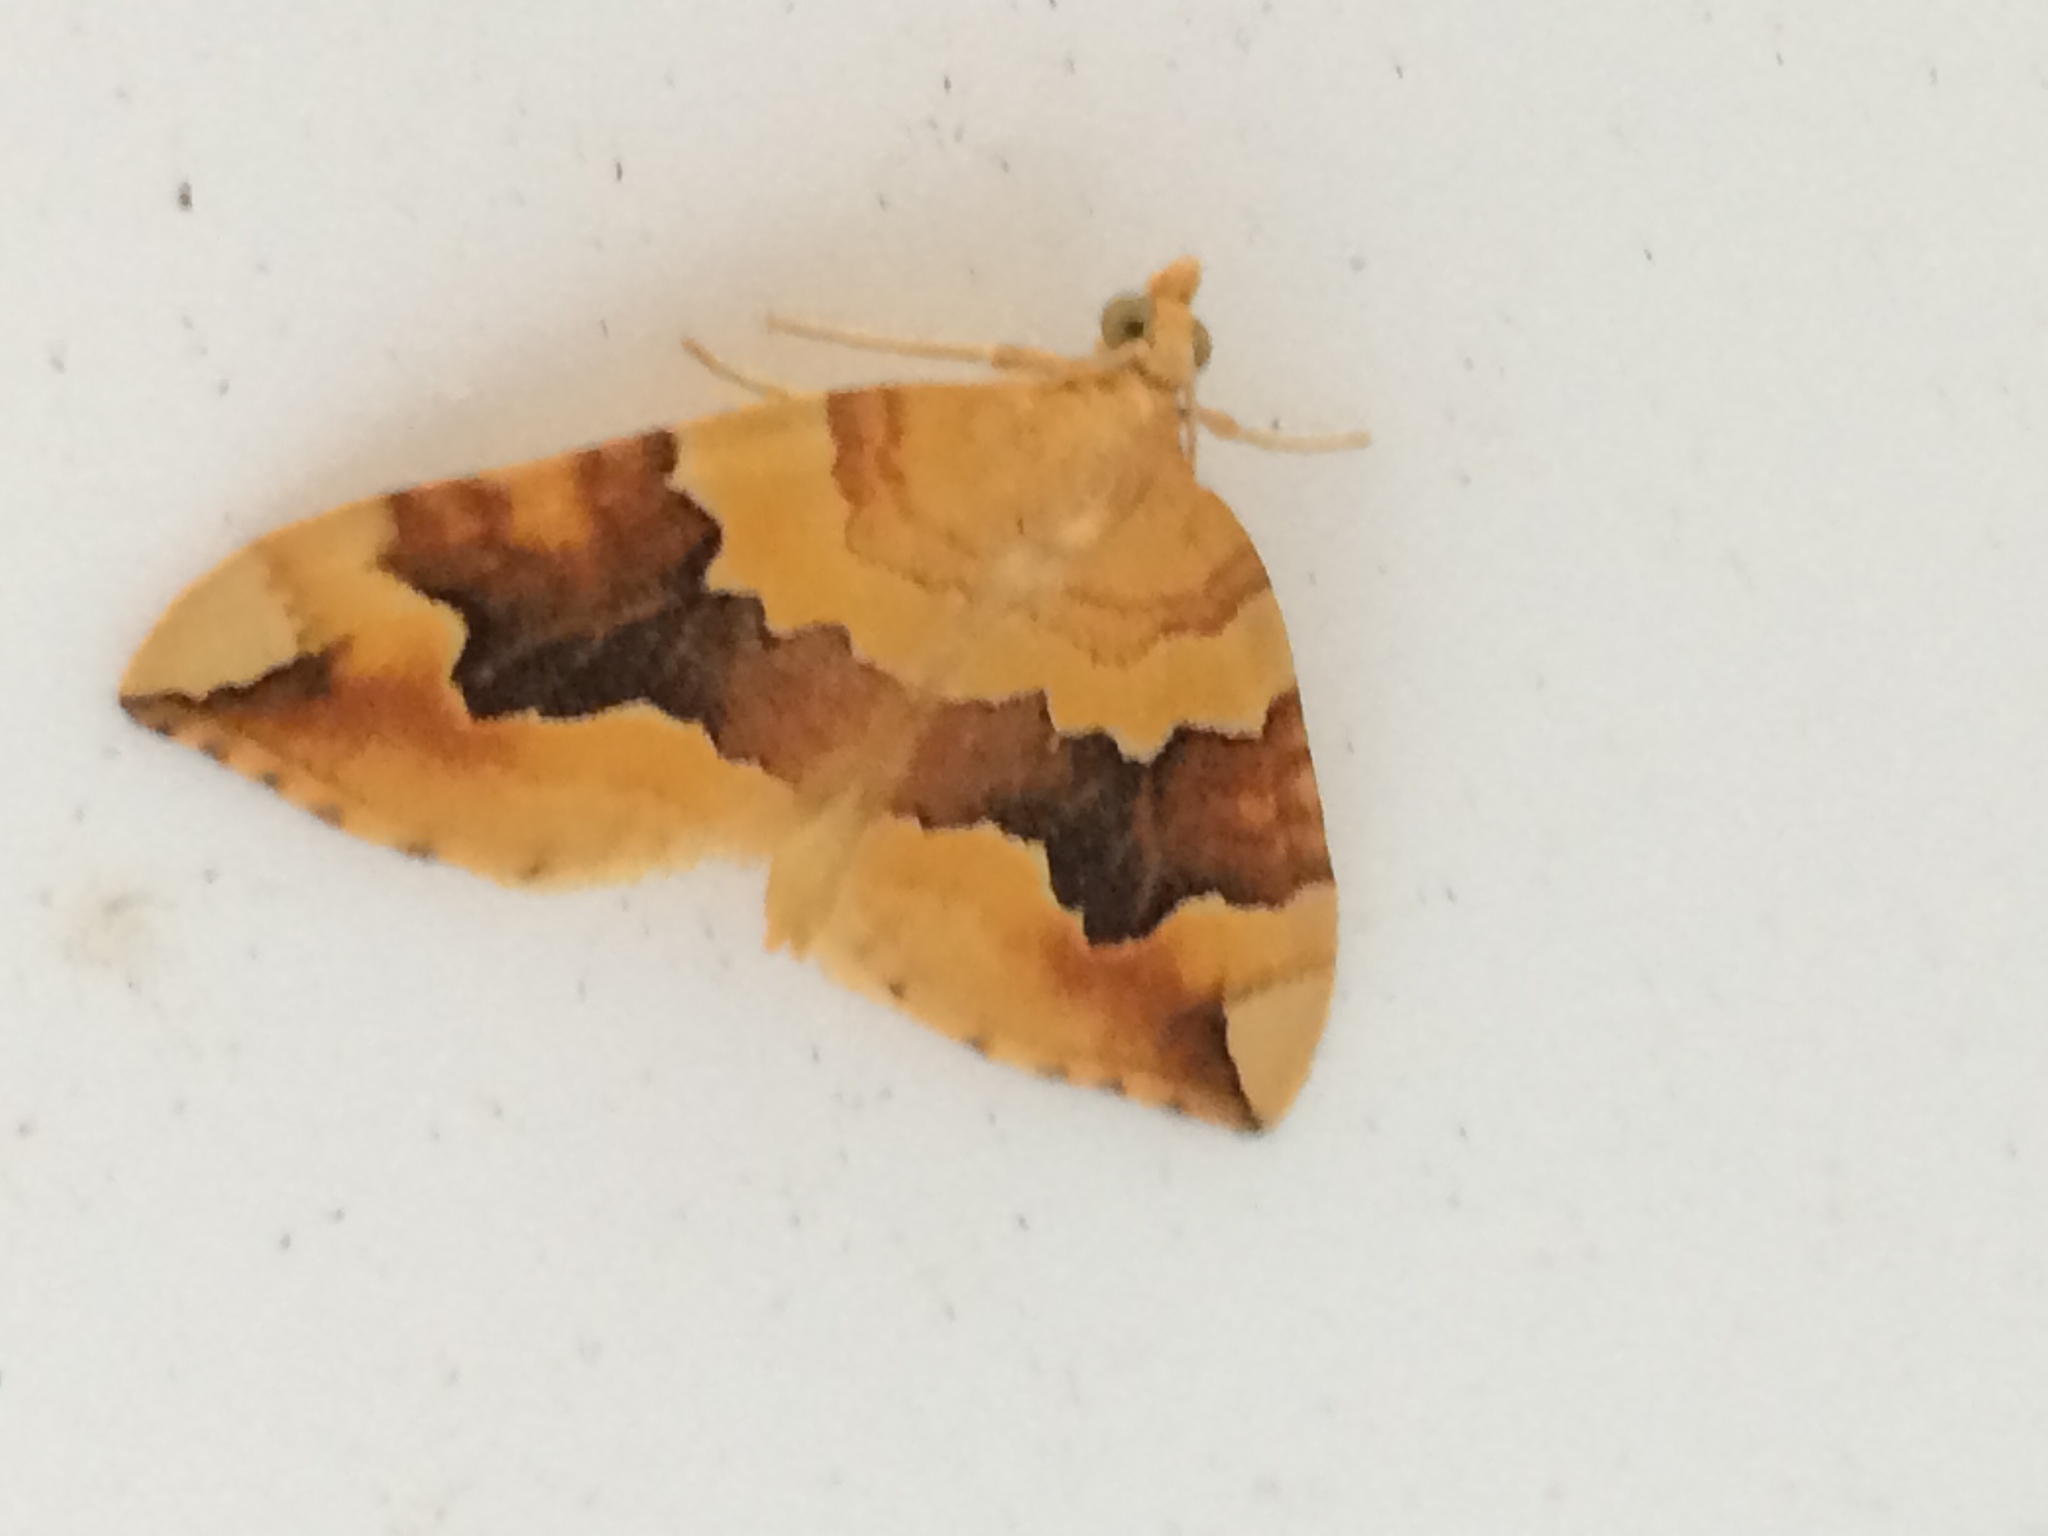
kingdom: Animalia
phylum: Arthropoda
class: Insecta
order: Lepidoptera
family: Geometridae
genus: Cidaria
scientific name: Cidaria fulvata
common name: Barred yellow
